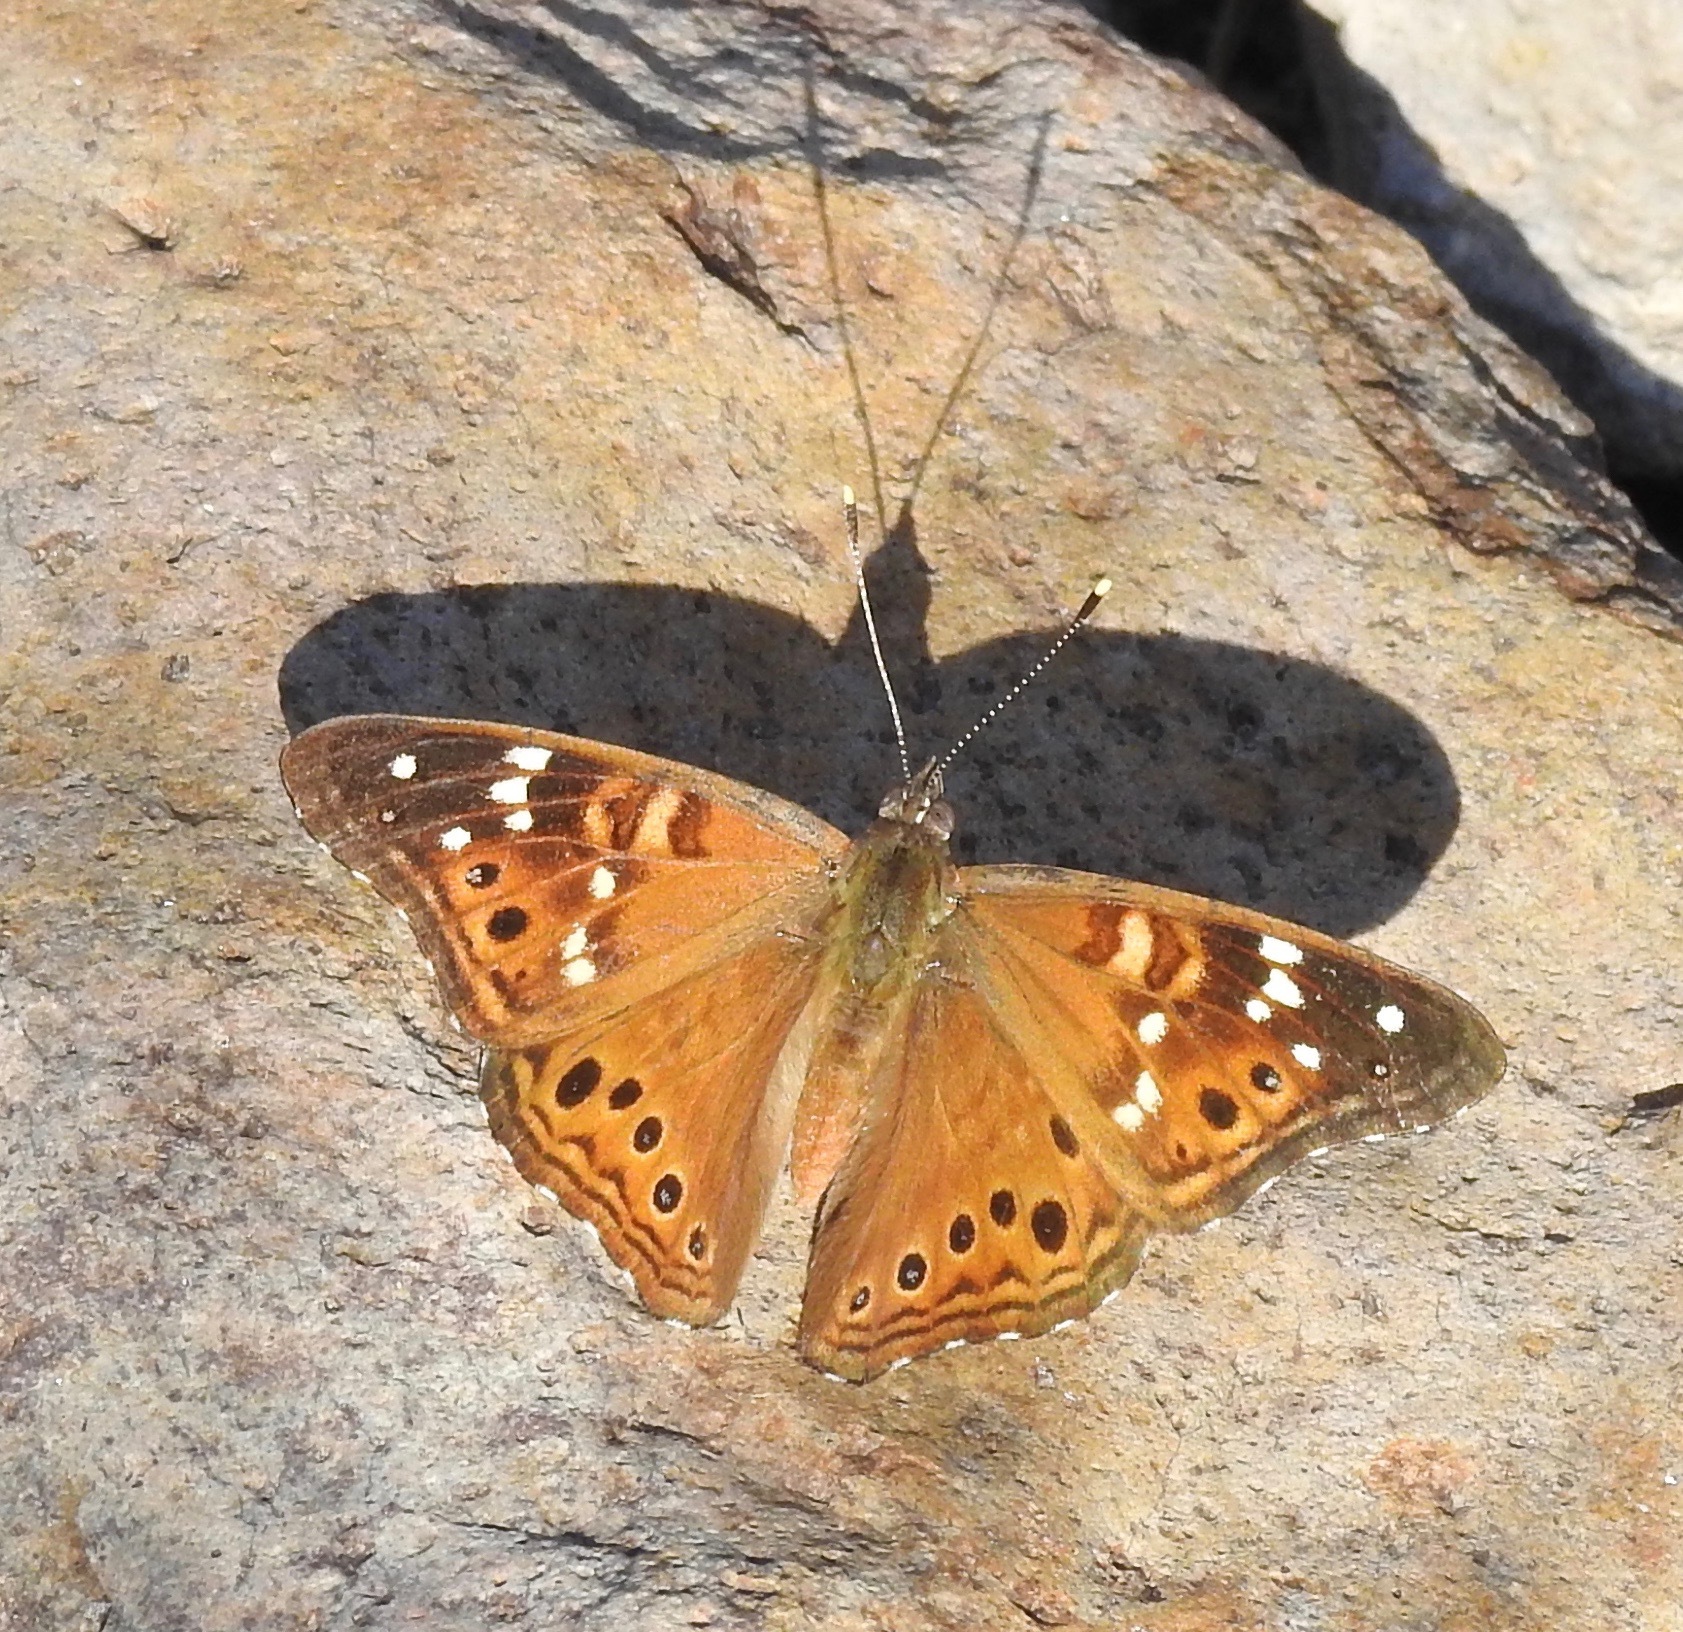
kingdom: Animalia
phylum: Arthropoda
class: Insecta
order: Lepidoptera
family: Nymphalidae
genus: Asterocampa
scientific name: Asterocampa leilia
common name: Empress leilia
